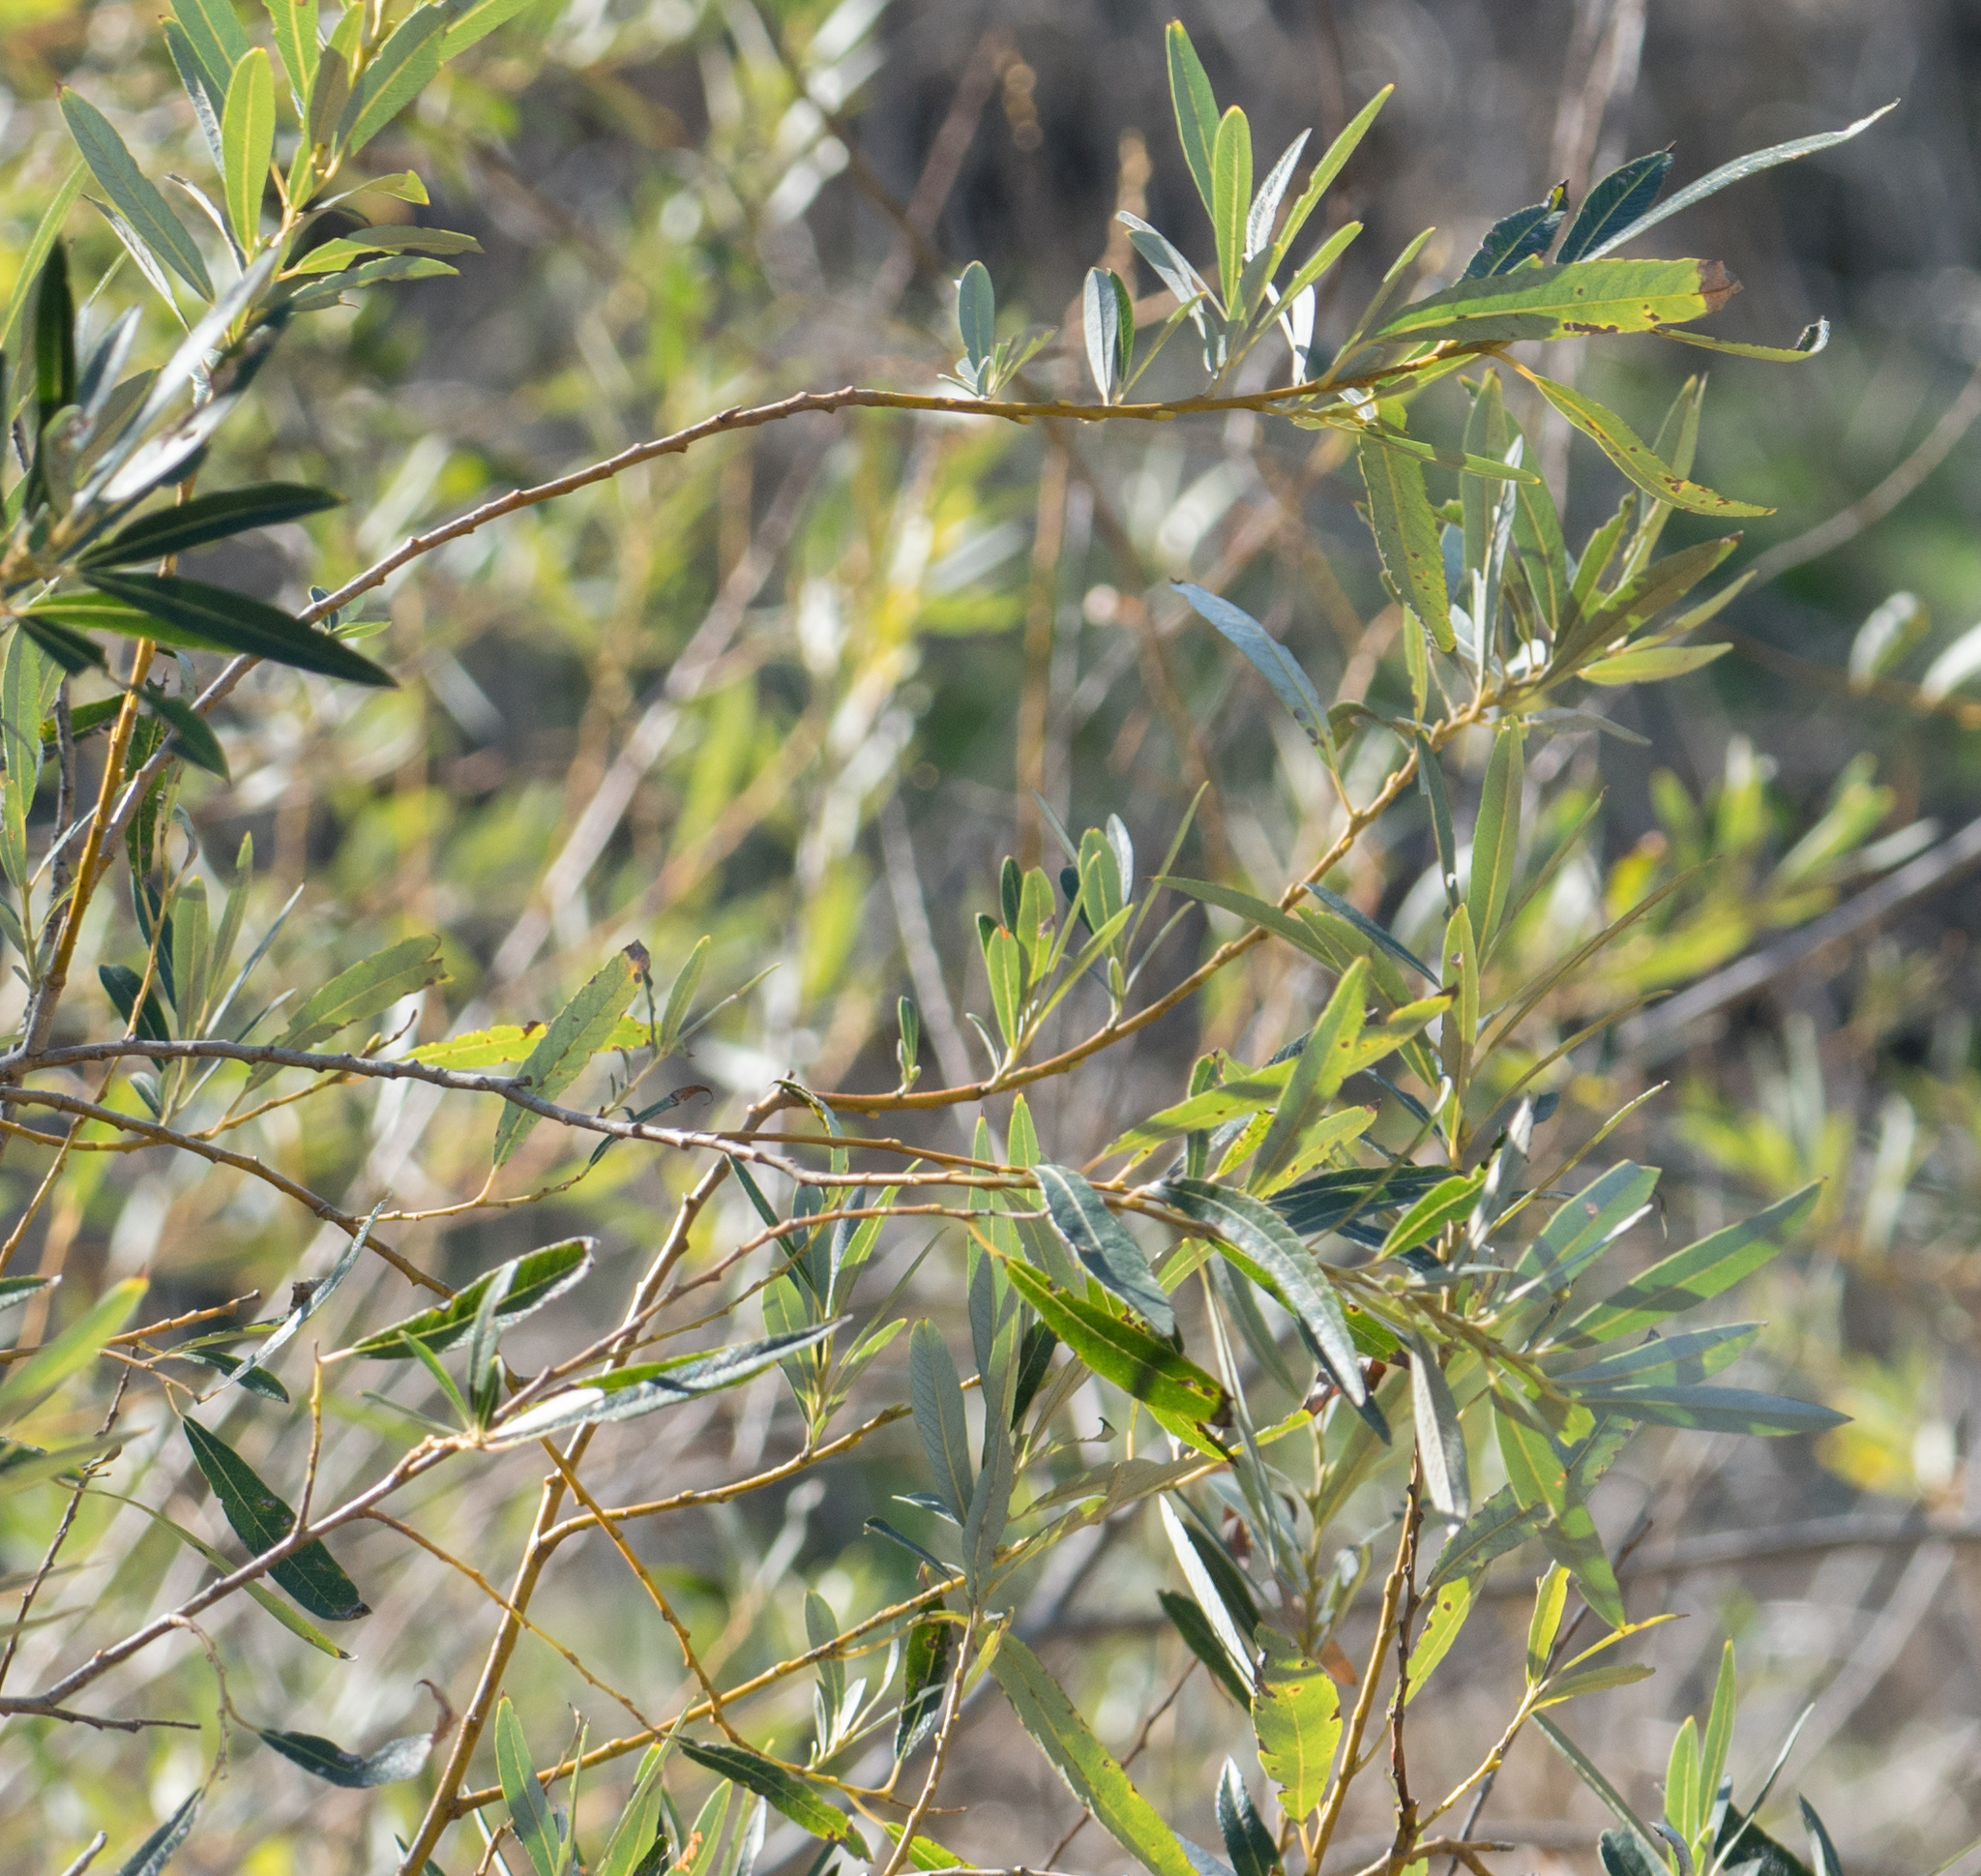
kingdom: Plantae
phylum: Tracheophyta
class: Magnoliopsida
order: Malpighiales
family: Salicaceae
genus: Salix
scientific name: Salix lasiolepis
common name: Arroyo willow
